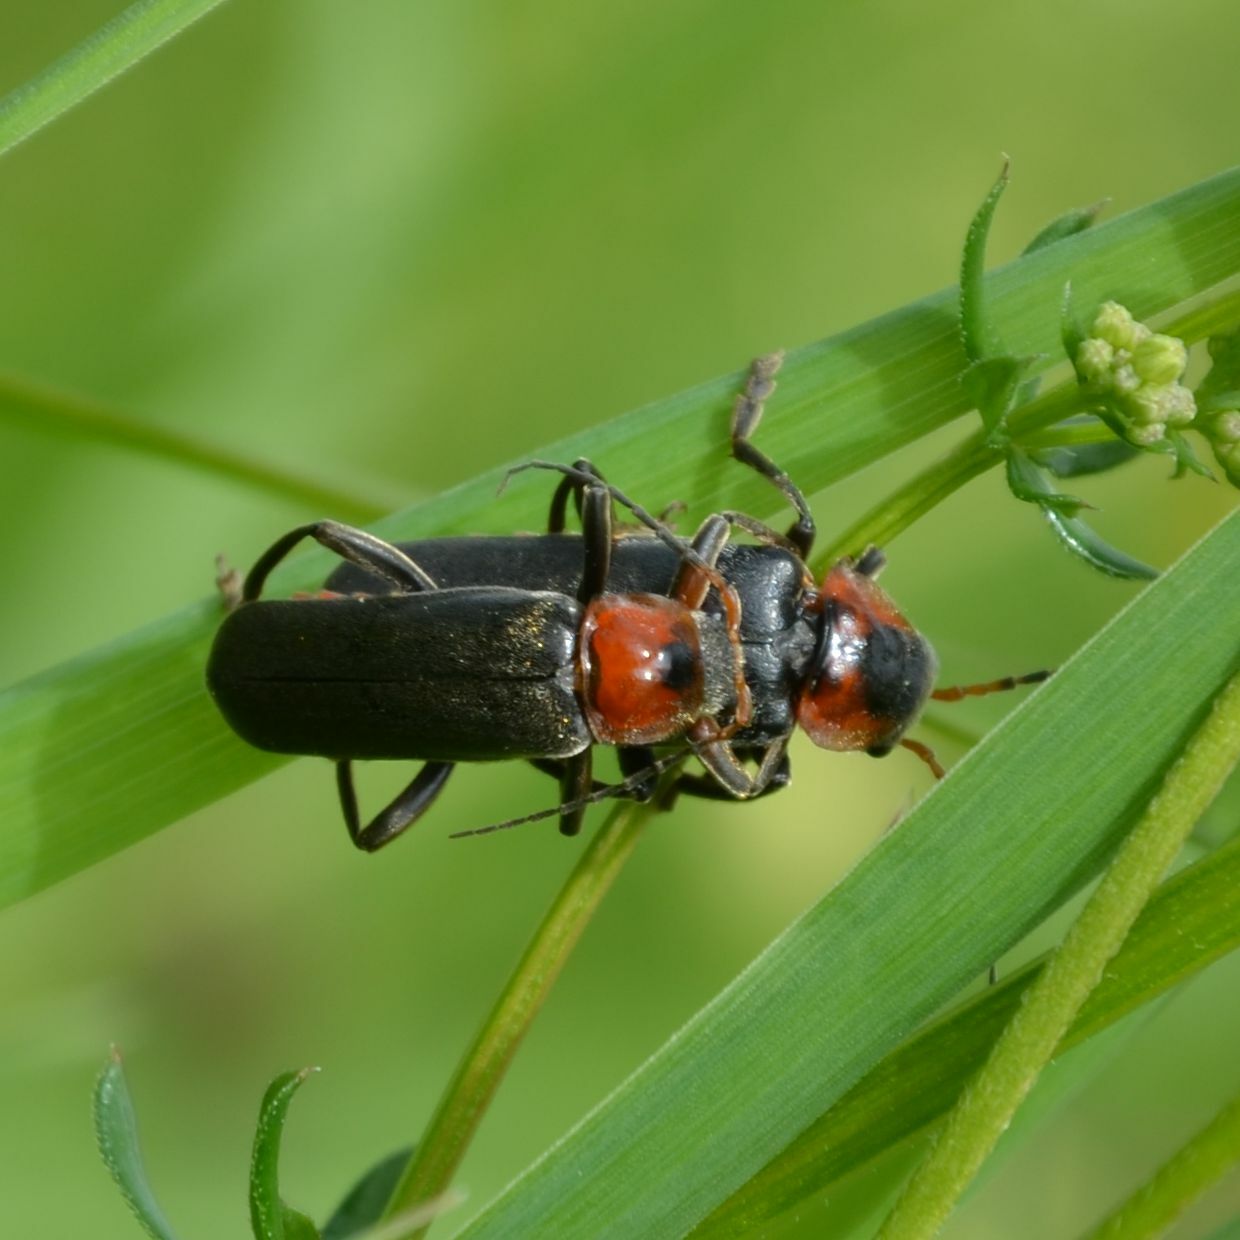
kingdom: Animalia
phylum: Arthropoda
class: Insecta
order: Coleoptera
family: Cantharidae
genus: Cantharis
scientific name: Cantharis fusca
